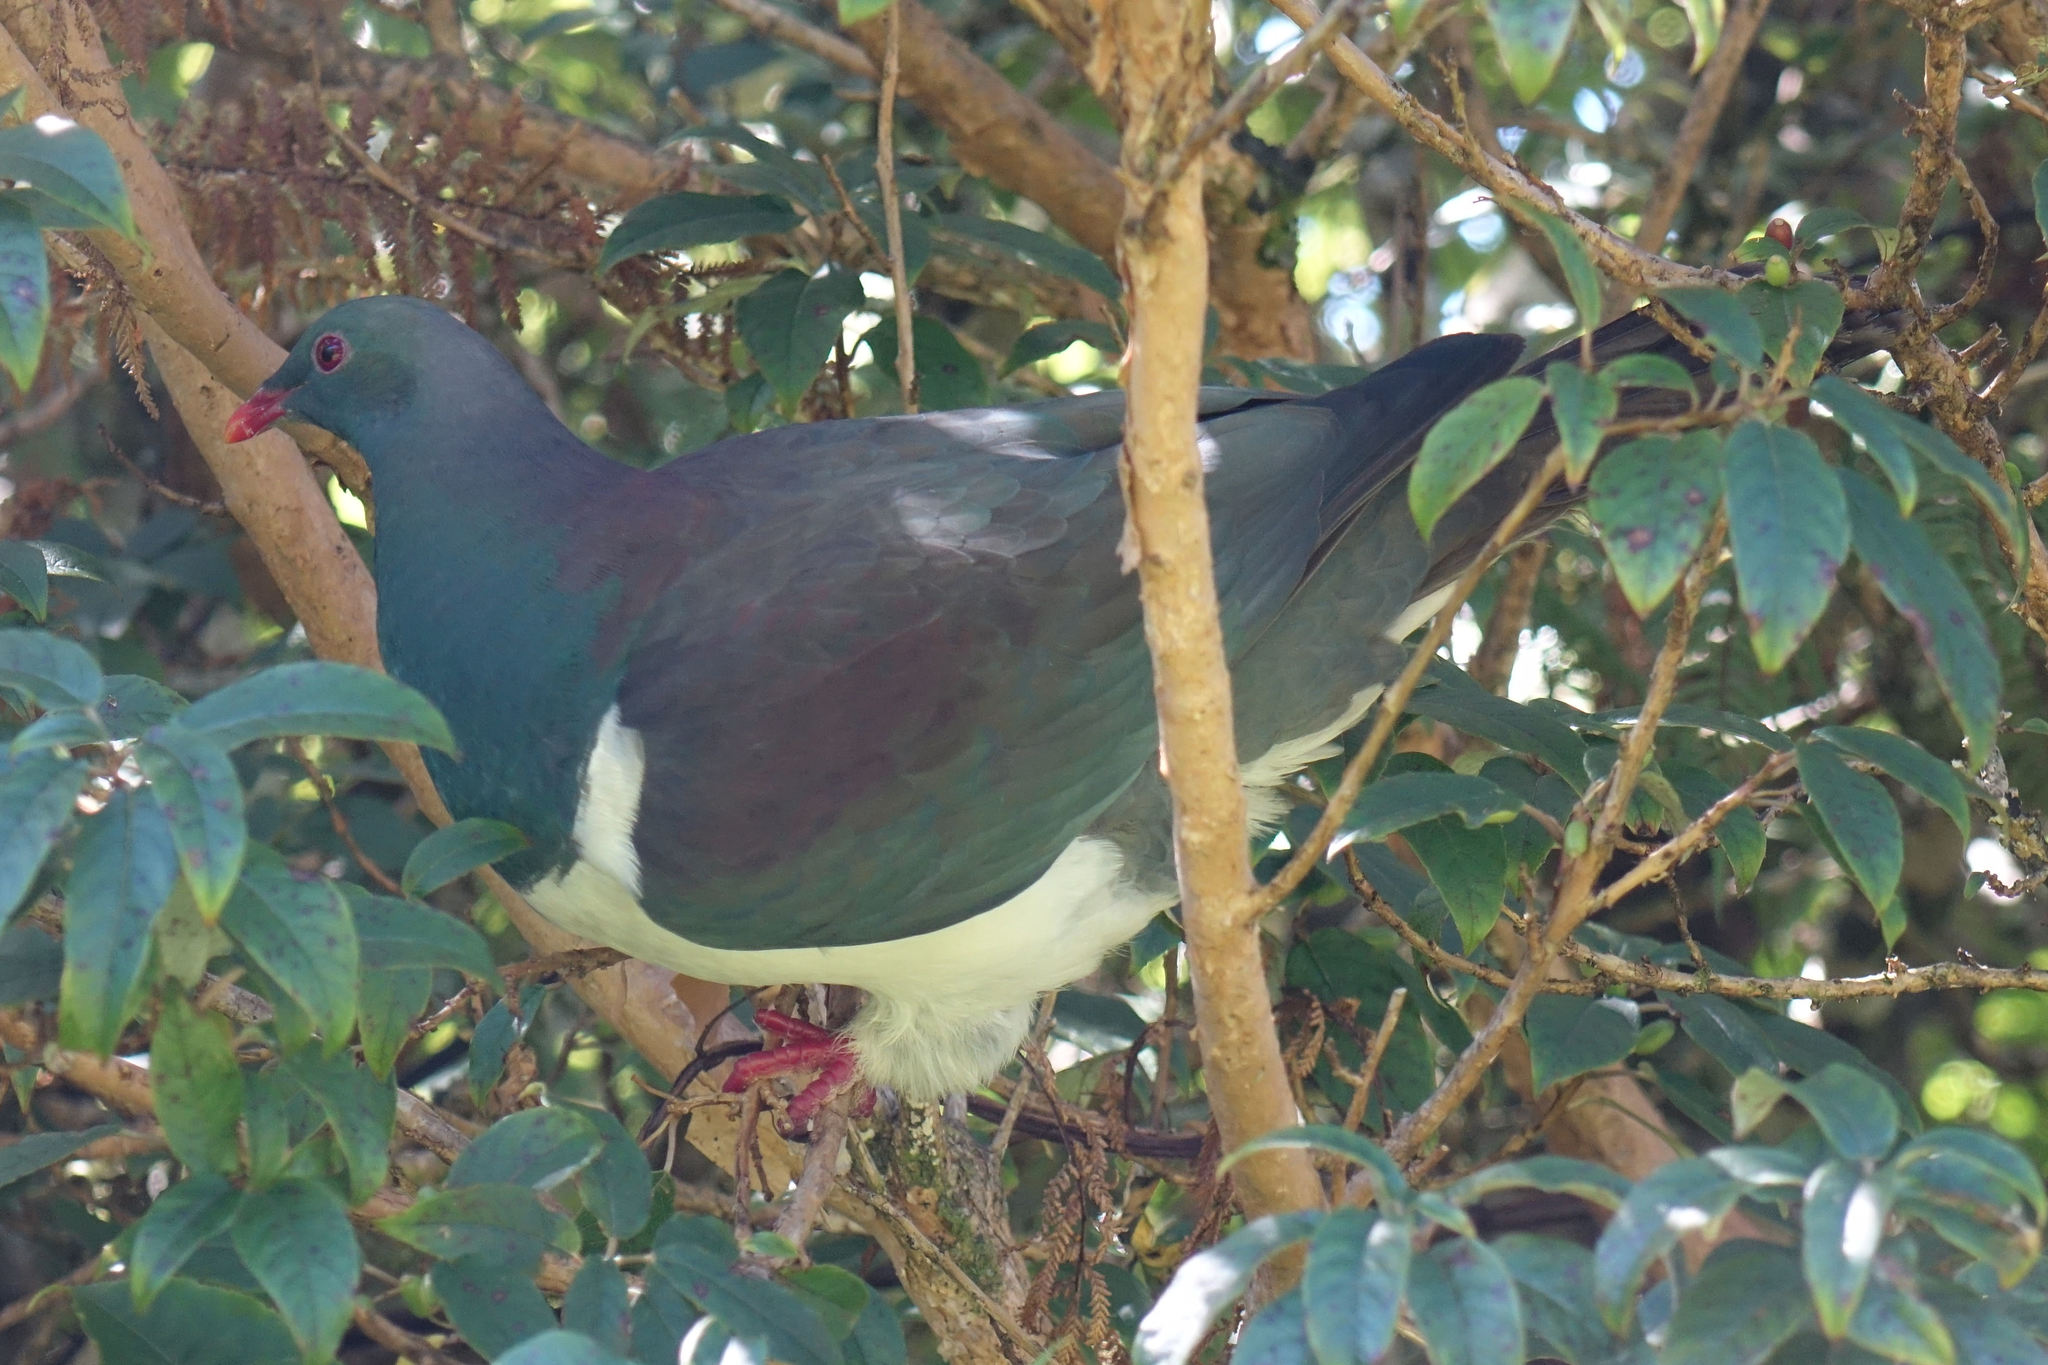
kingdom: Animalia
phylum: Chordata
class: Aves
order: Columbiformes
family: Columbidae
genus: Hemiphaga
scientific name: Hemiphaga novaeseelandiae
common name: New zealand pigeon
